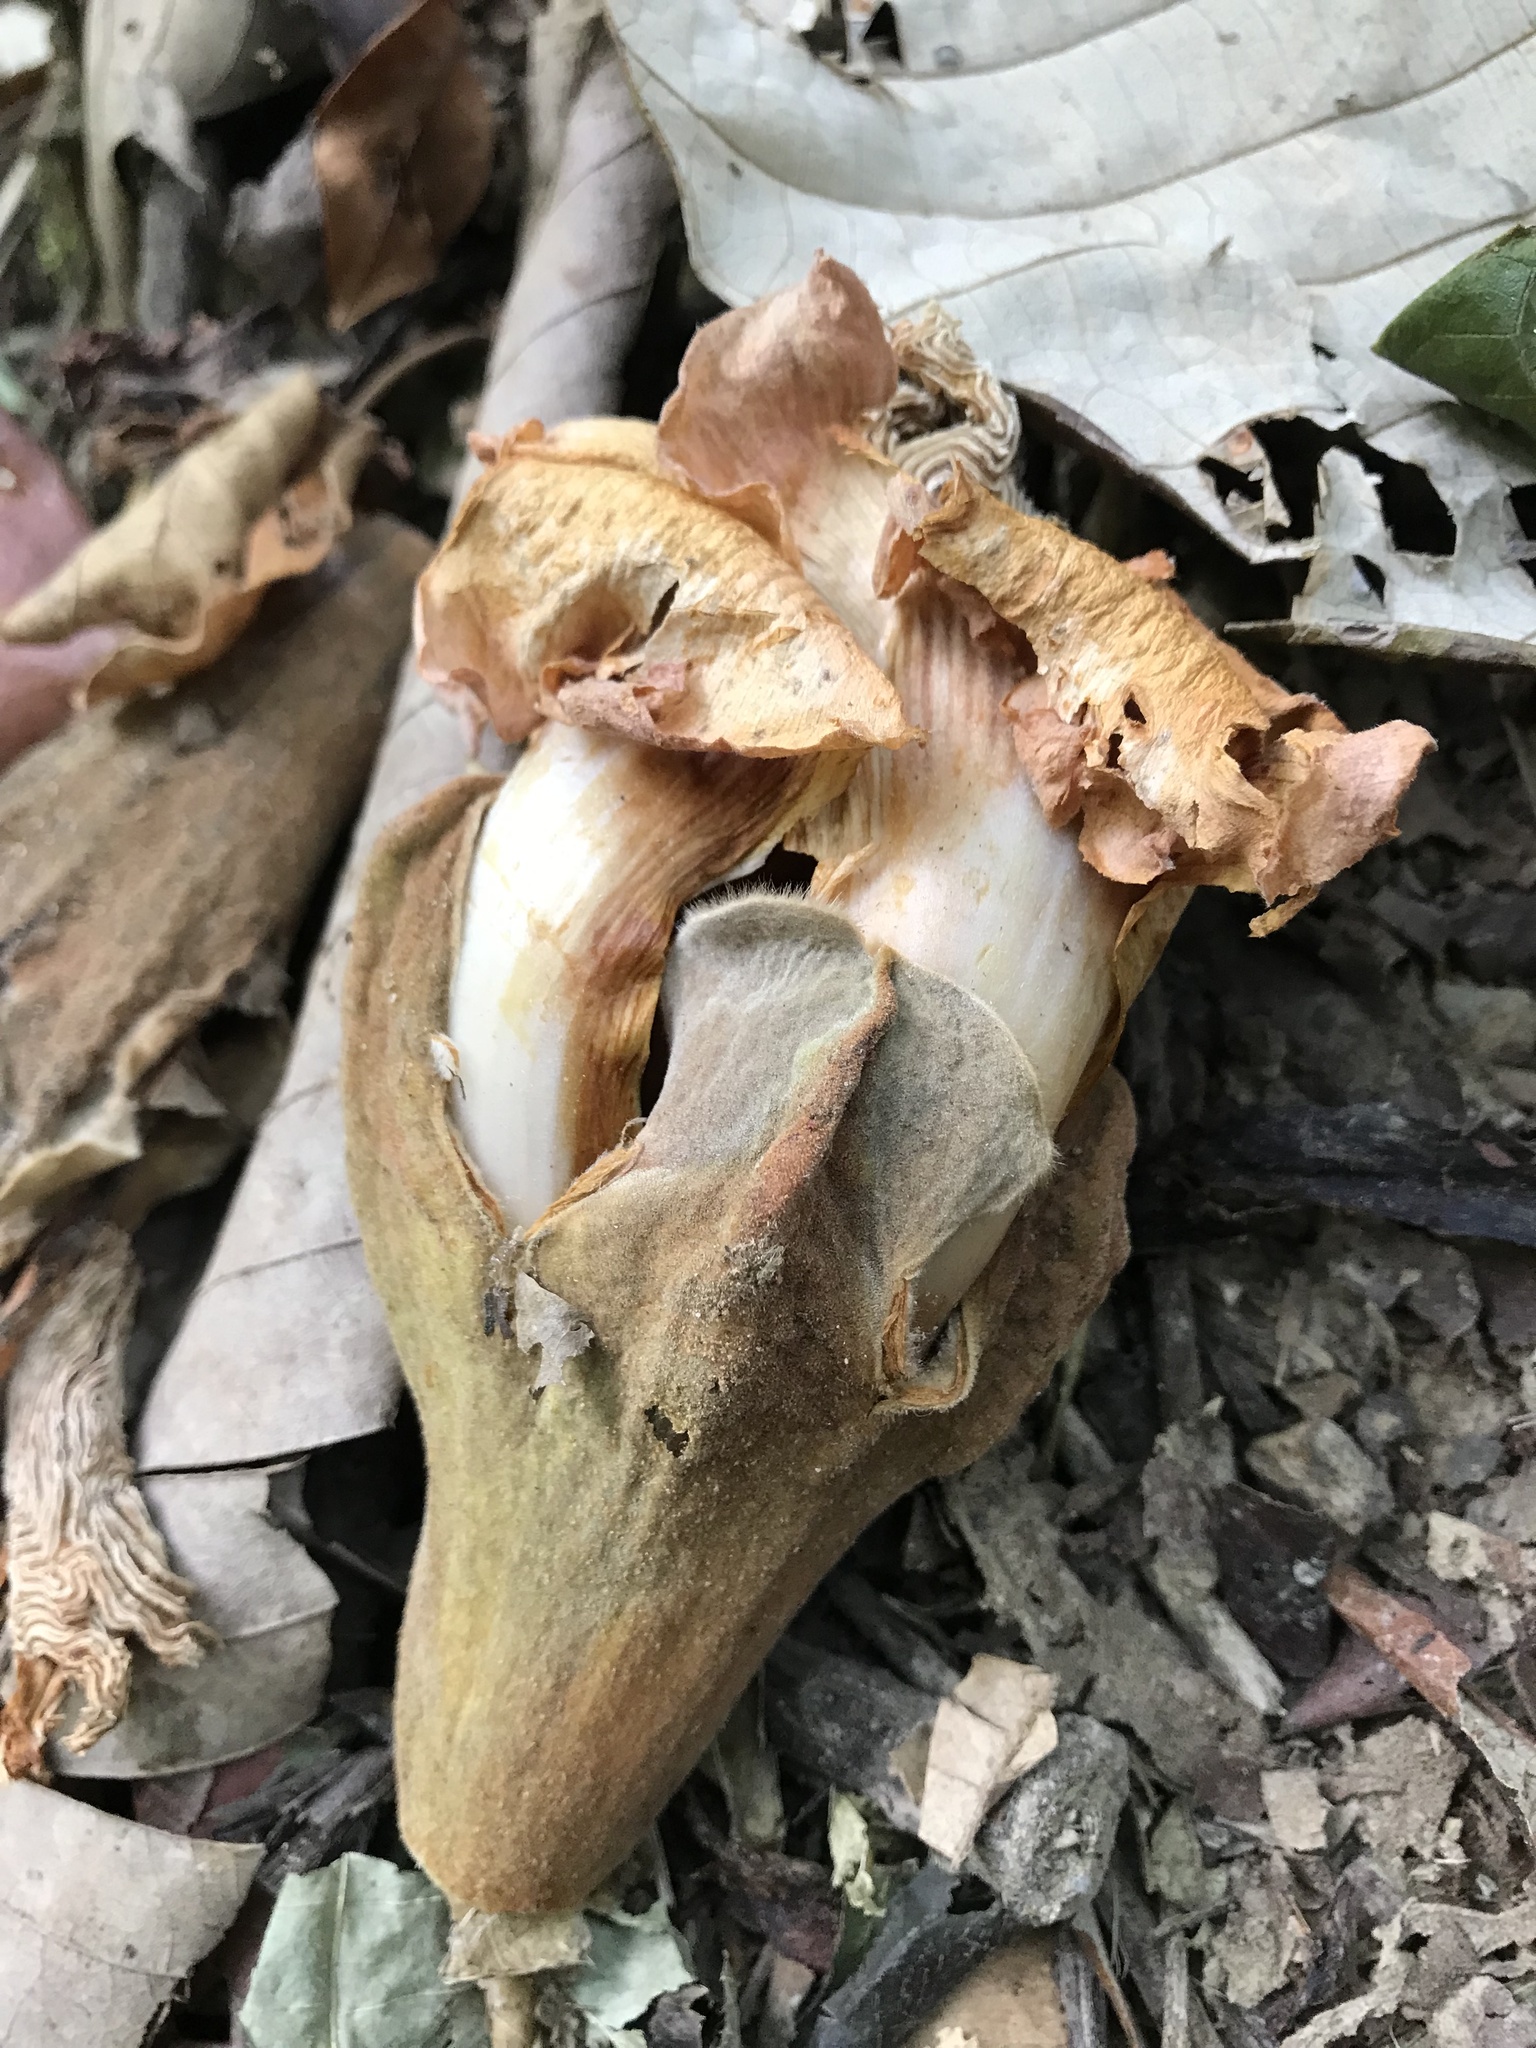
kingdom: Plantae
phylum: Tracheophyta
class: Magnoliopsida
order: Malvales
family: Malvaceae
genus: Ochroma
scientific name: Ochroma pyramidale
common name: Balsa
